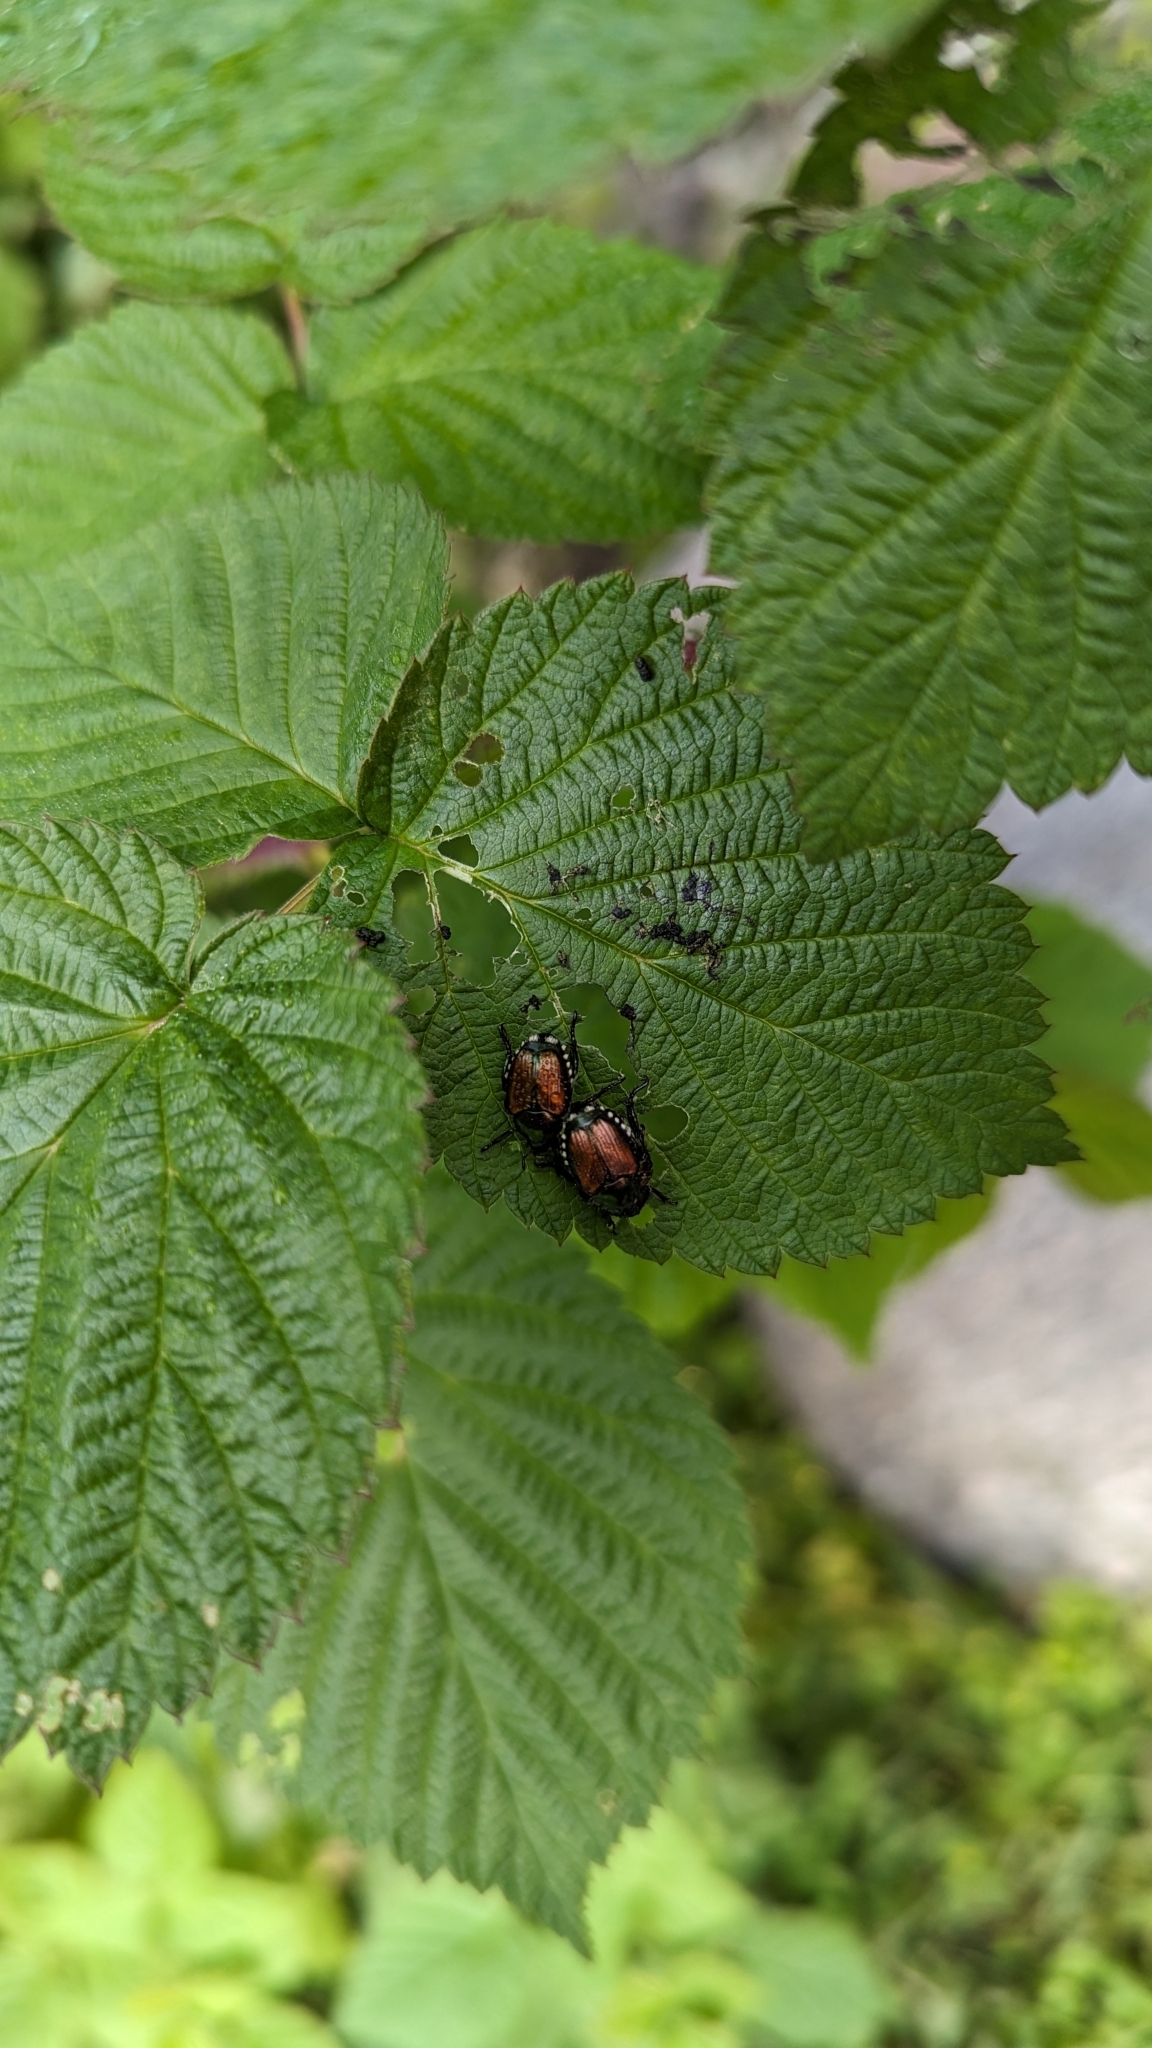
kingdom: Animalia
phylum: Arthropoda
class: Insecta
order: Coleoptera
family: Scarabaeidae
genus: Popillia
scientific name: Popillia japonica
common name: Japanese beetle
